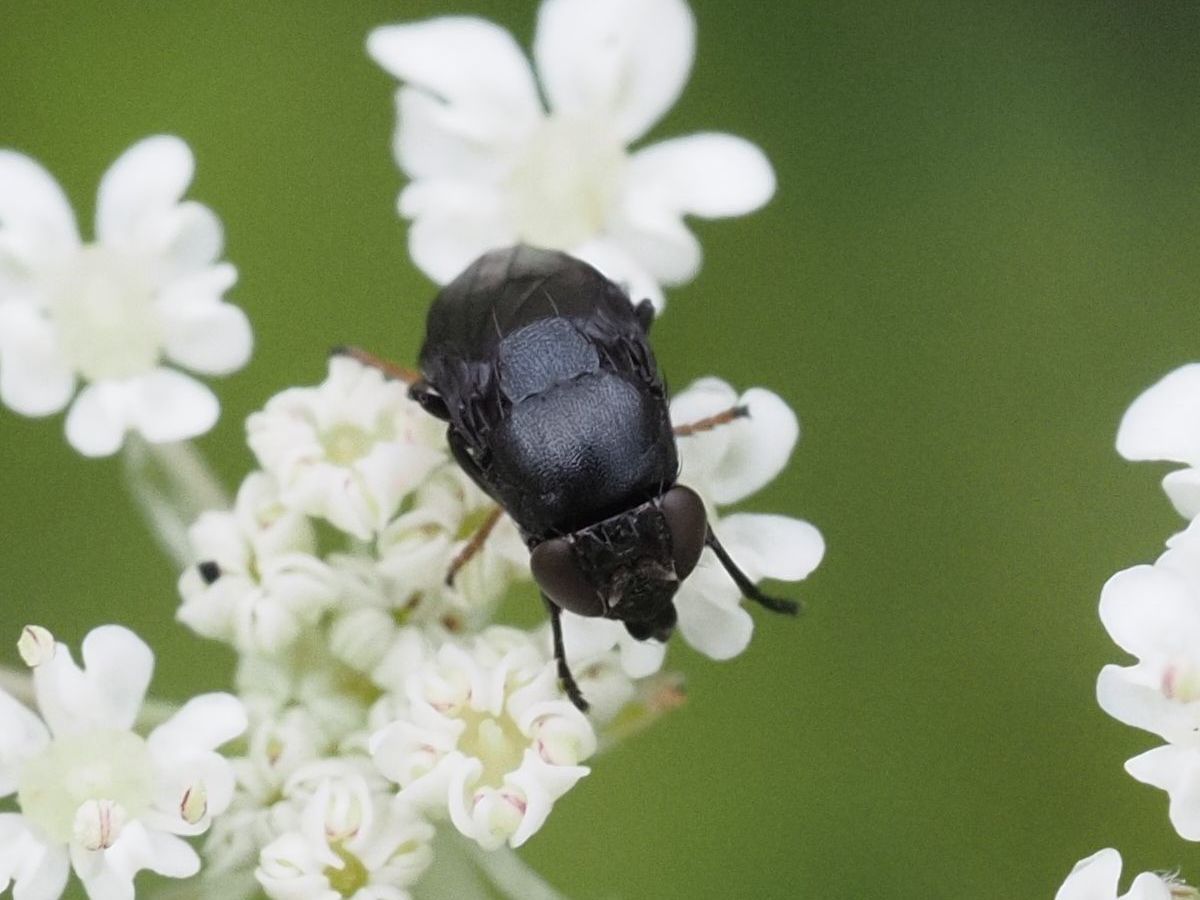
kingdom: Animalia
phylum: Arthropoda
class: Insecta
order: Diptera
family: Ephydridae
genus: Discomyza
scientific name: Discomyza incurva
